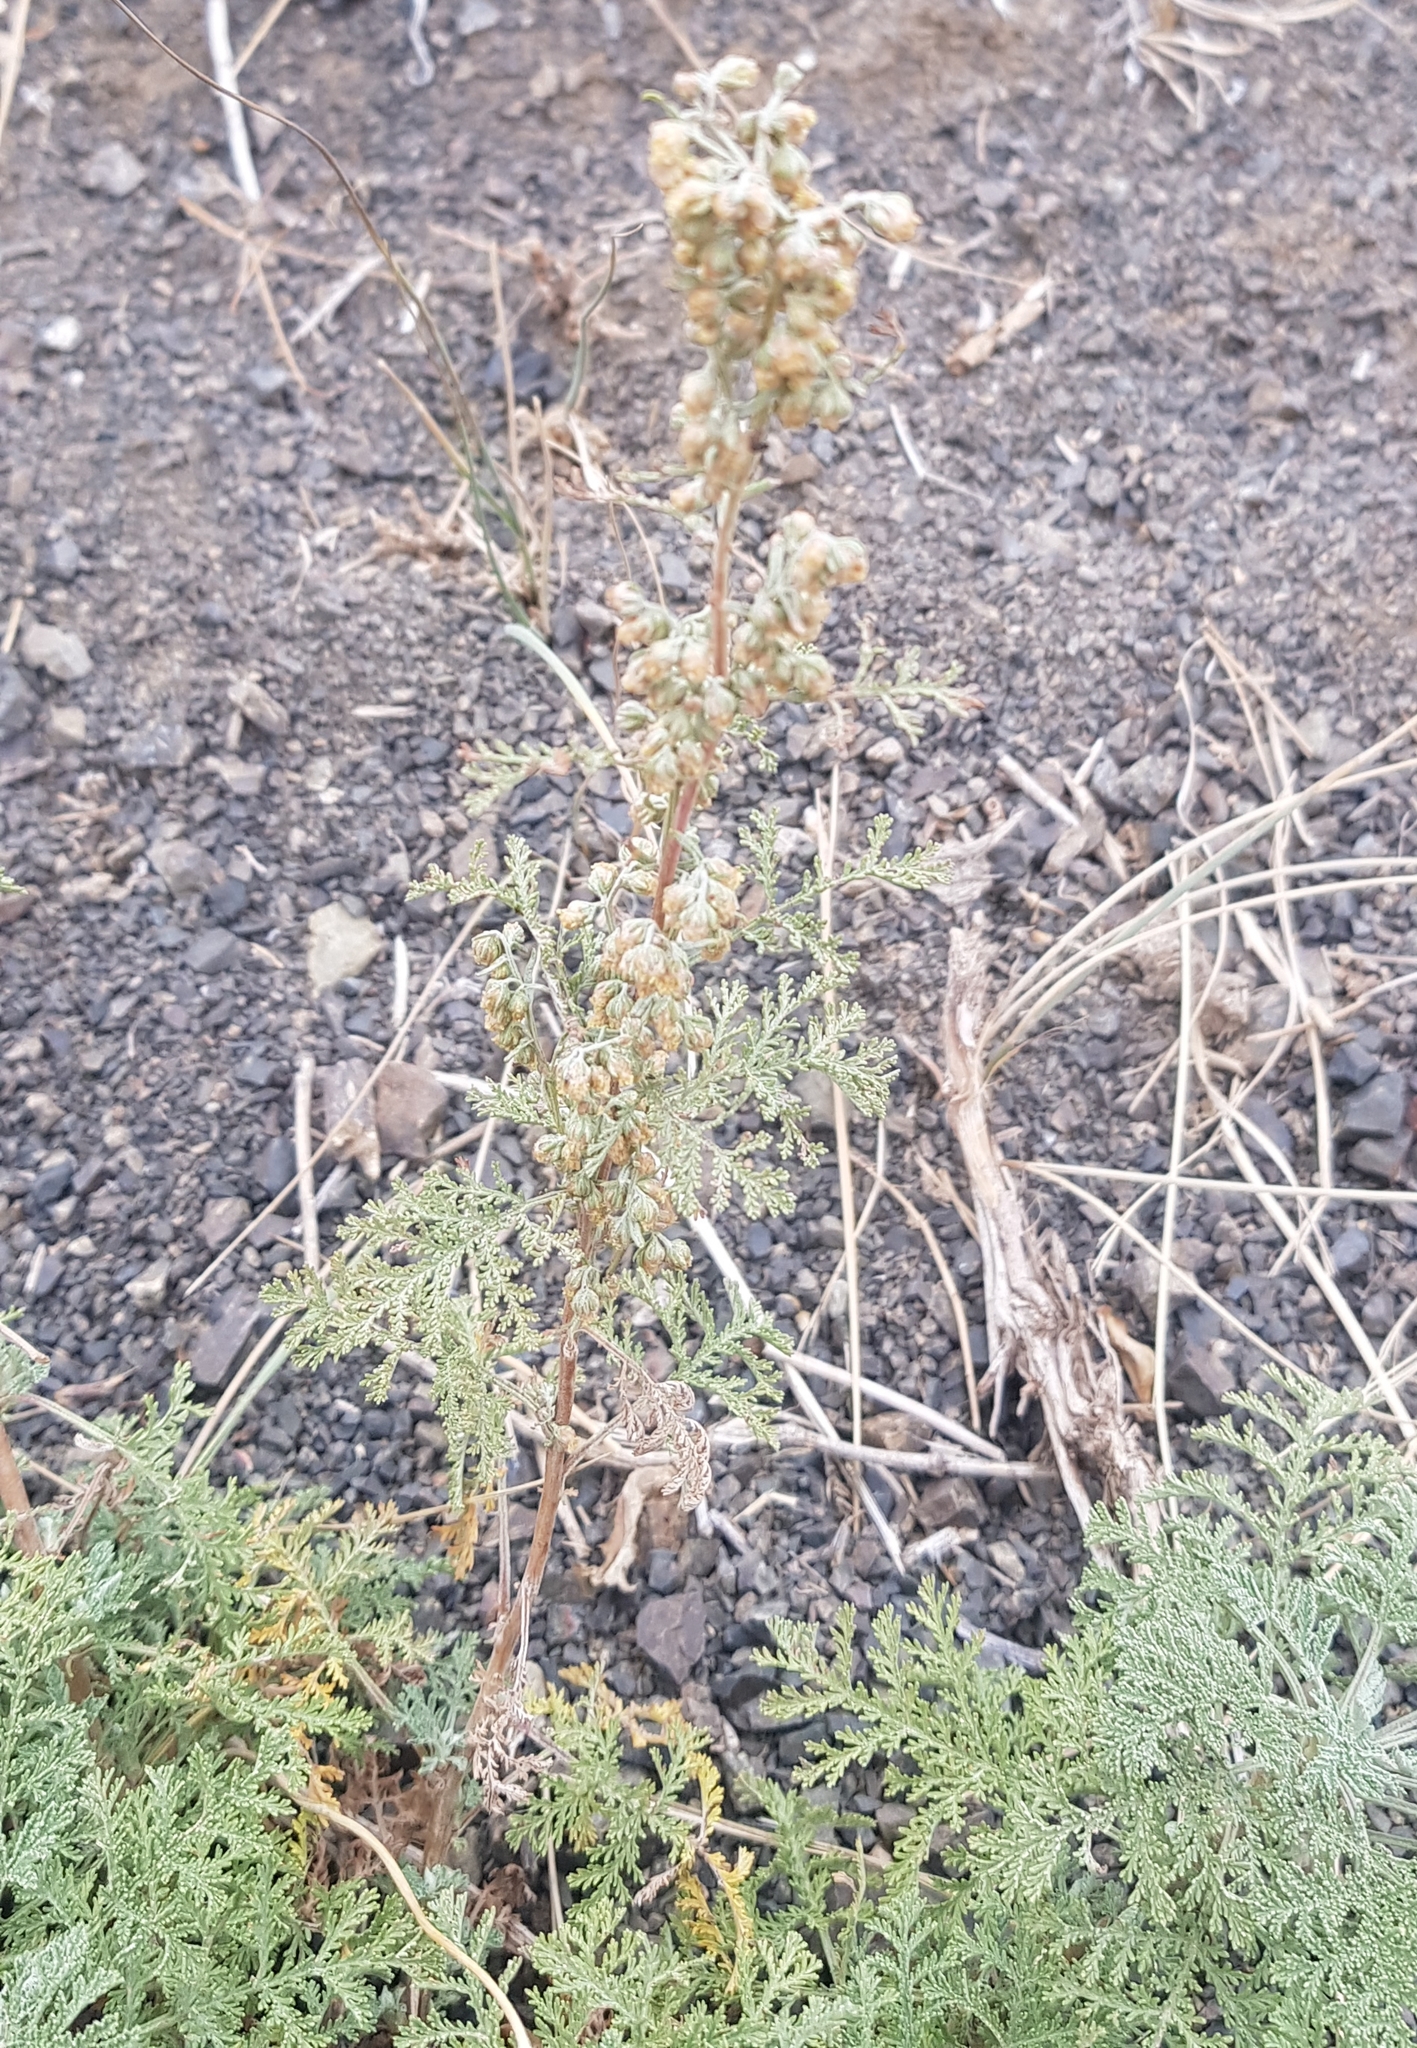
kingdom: Plantae
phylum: Tracheophyta
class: Magnoliopsida
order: Asterales
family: Asteraceae
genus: Artemisia
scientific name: Artemisia
